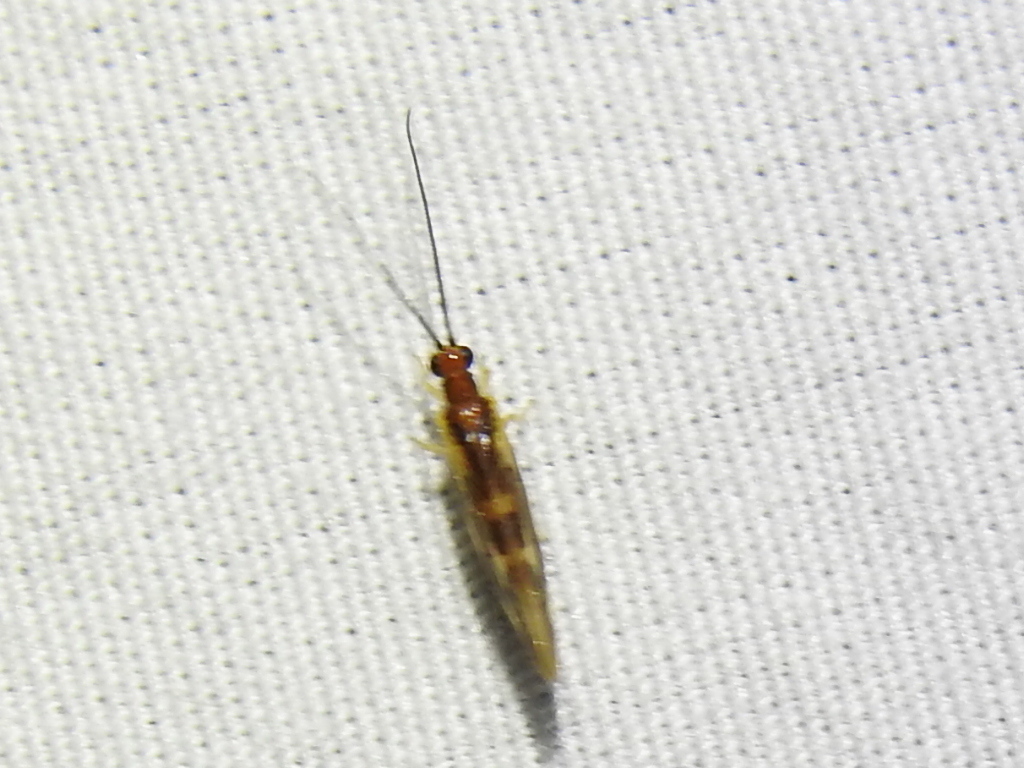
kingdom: Animalia
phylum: Arthropoda
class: Insecta
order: Neuroptera
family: Sisyridae
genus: Climacia
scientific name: Climacia areolaris
